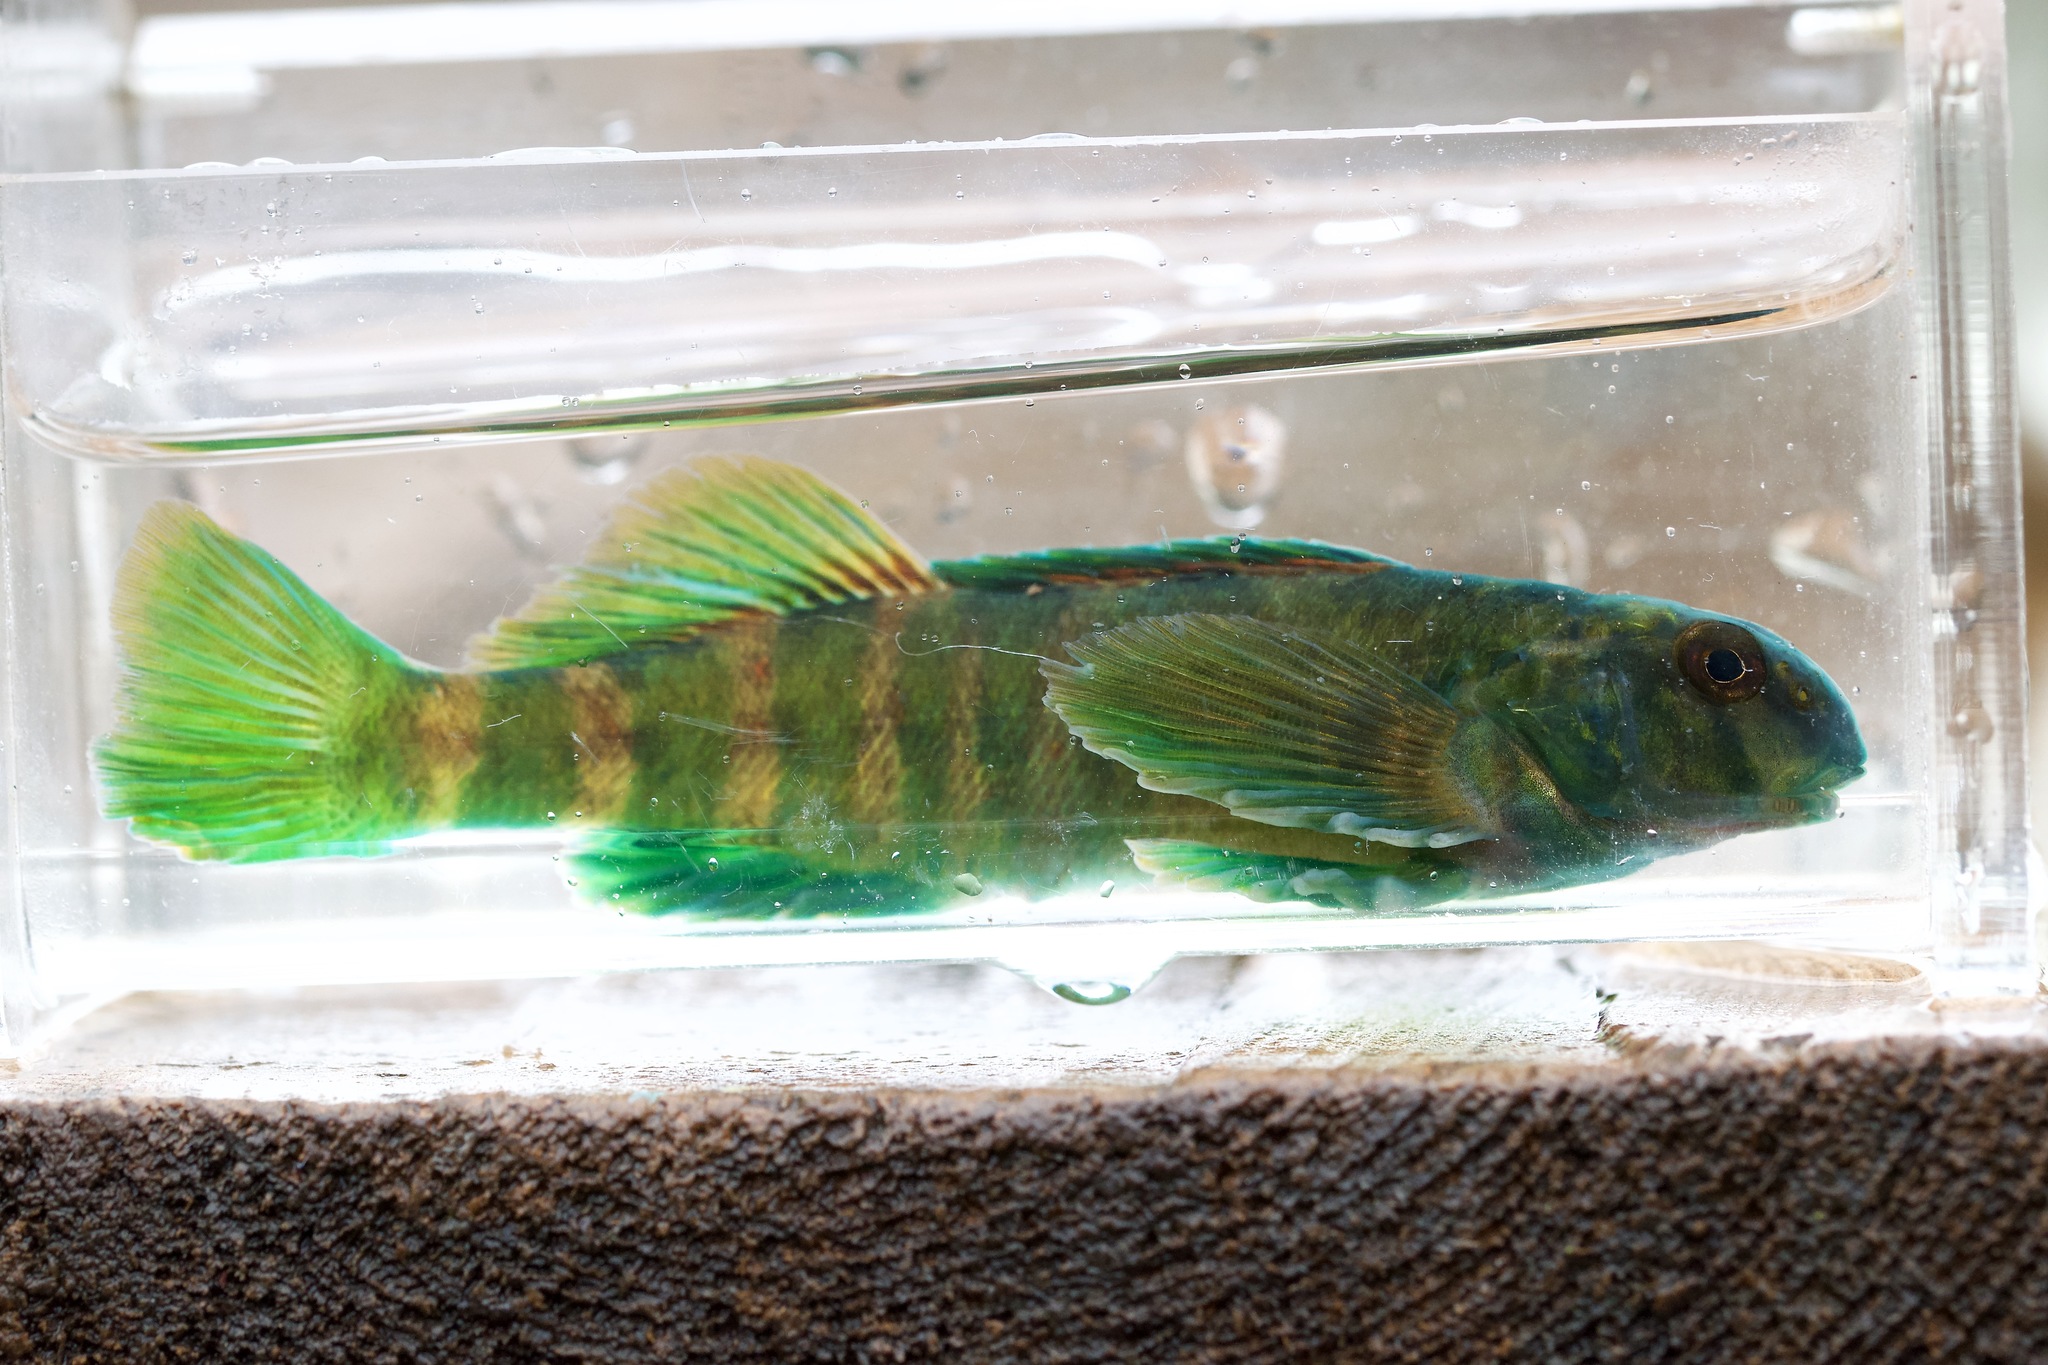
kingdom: Animalia
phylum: Chordata
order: Perciformes
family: Percidae
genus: Etheostoma
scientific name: Etheostoma blennioides
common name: Greenside darter
